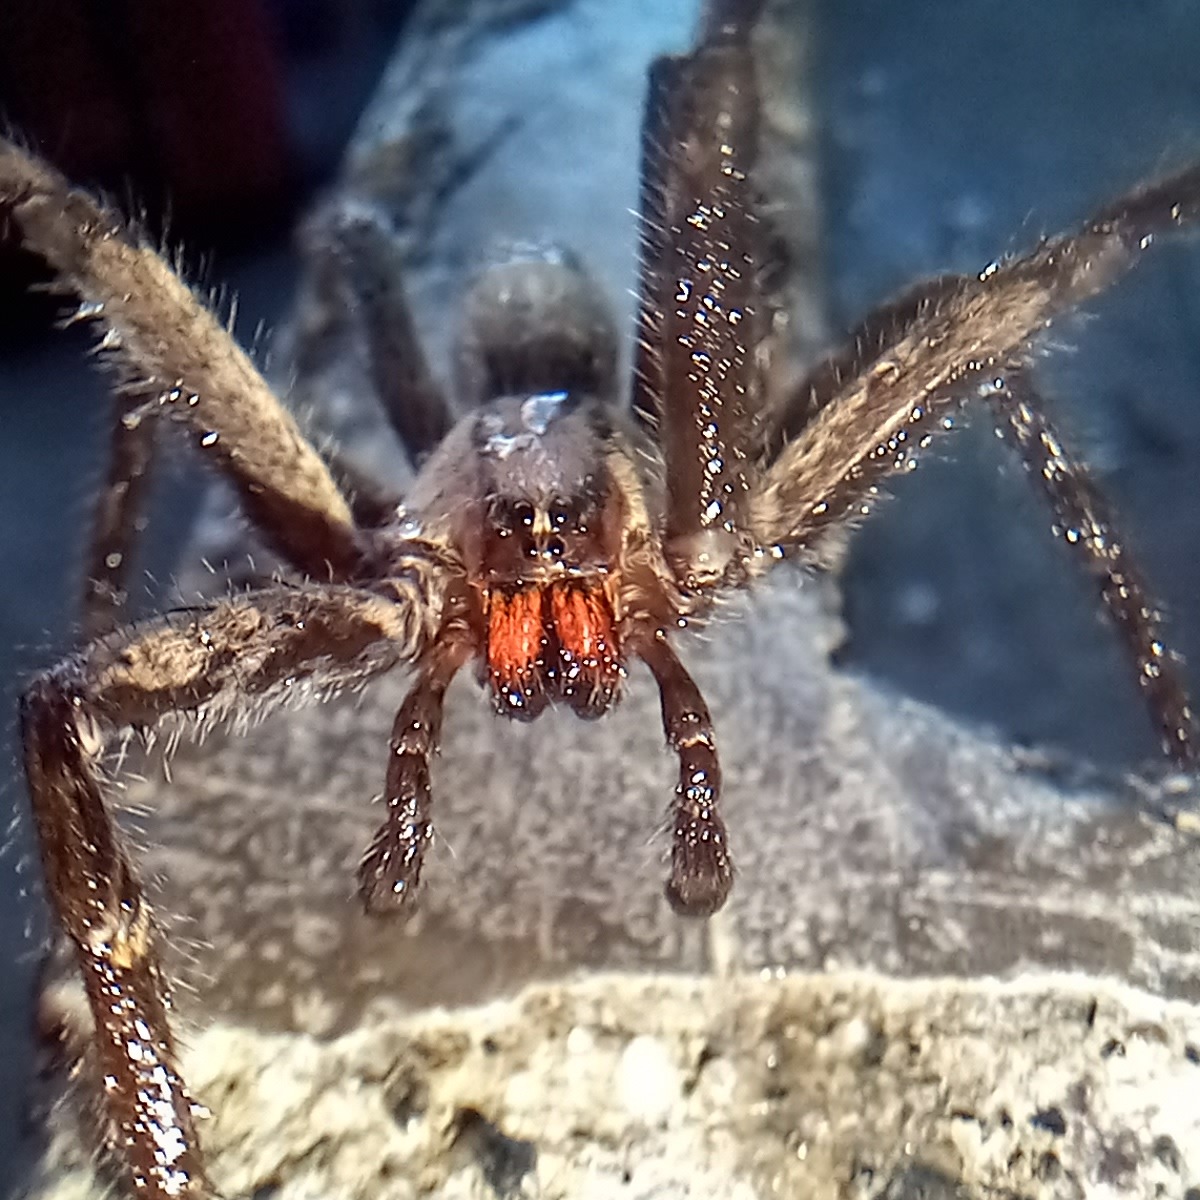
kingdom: Animalia
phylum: Arthropoda
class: Arachnida
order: Araneae
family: Trechaleidae
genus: Cupiennius
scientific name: Cupiennius chiapanensis
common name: Wandering spiders
